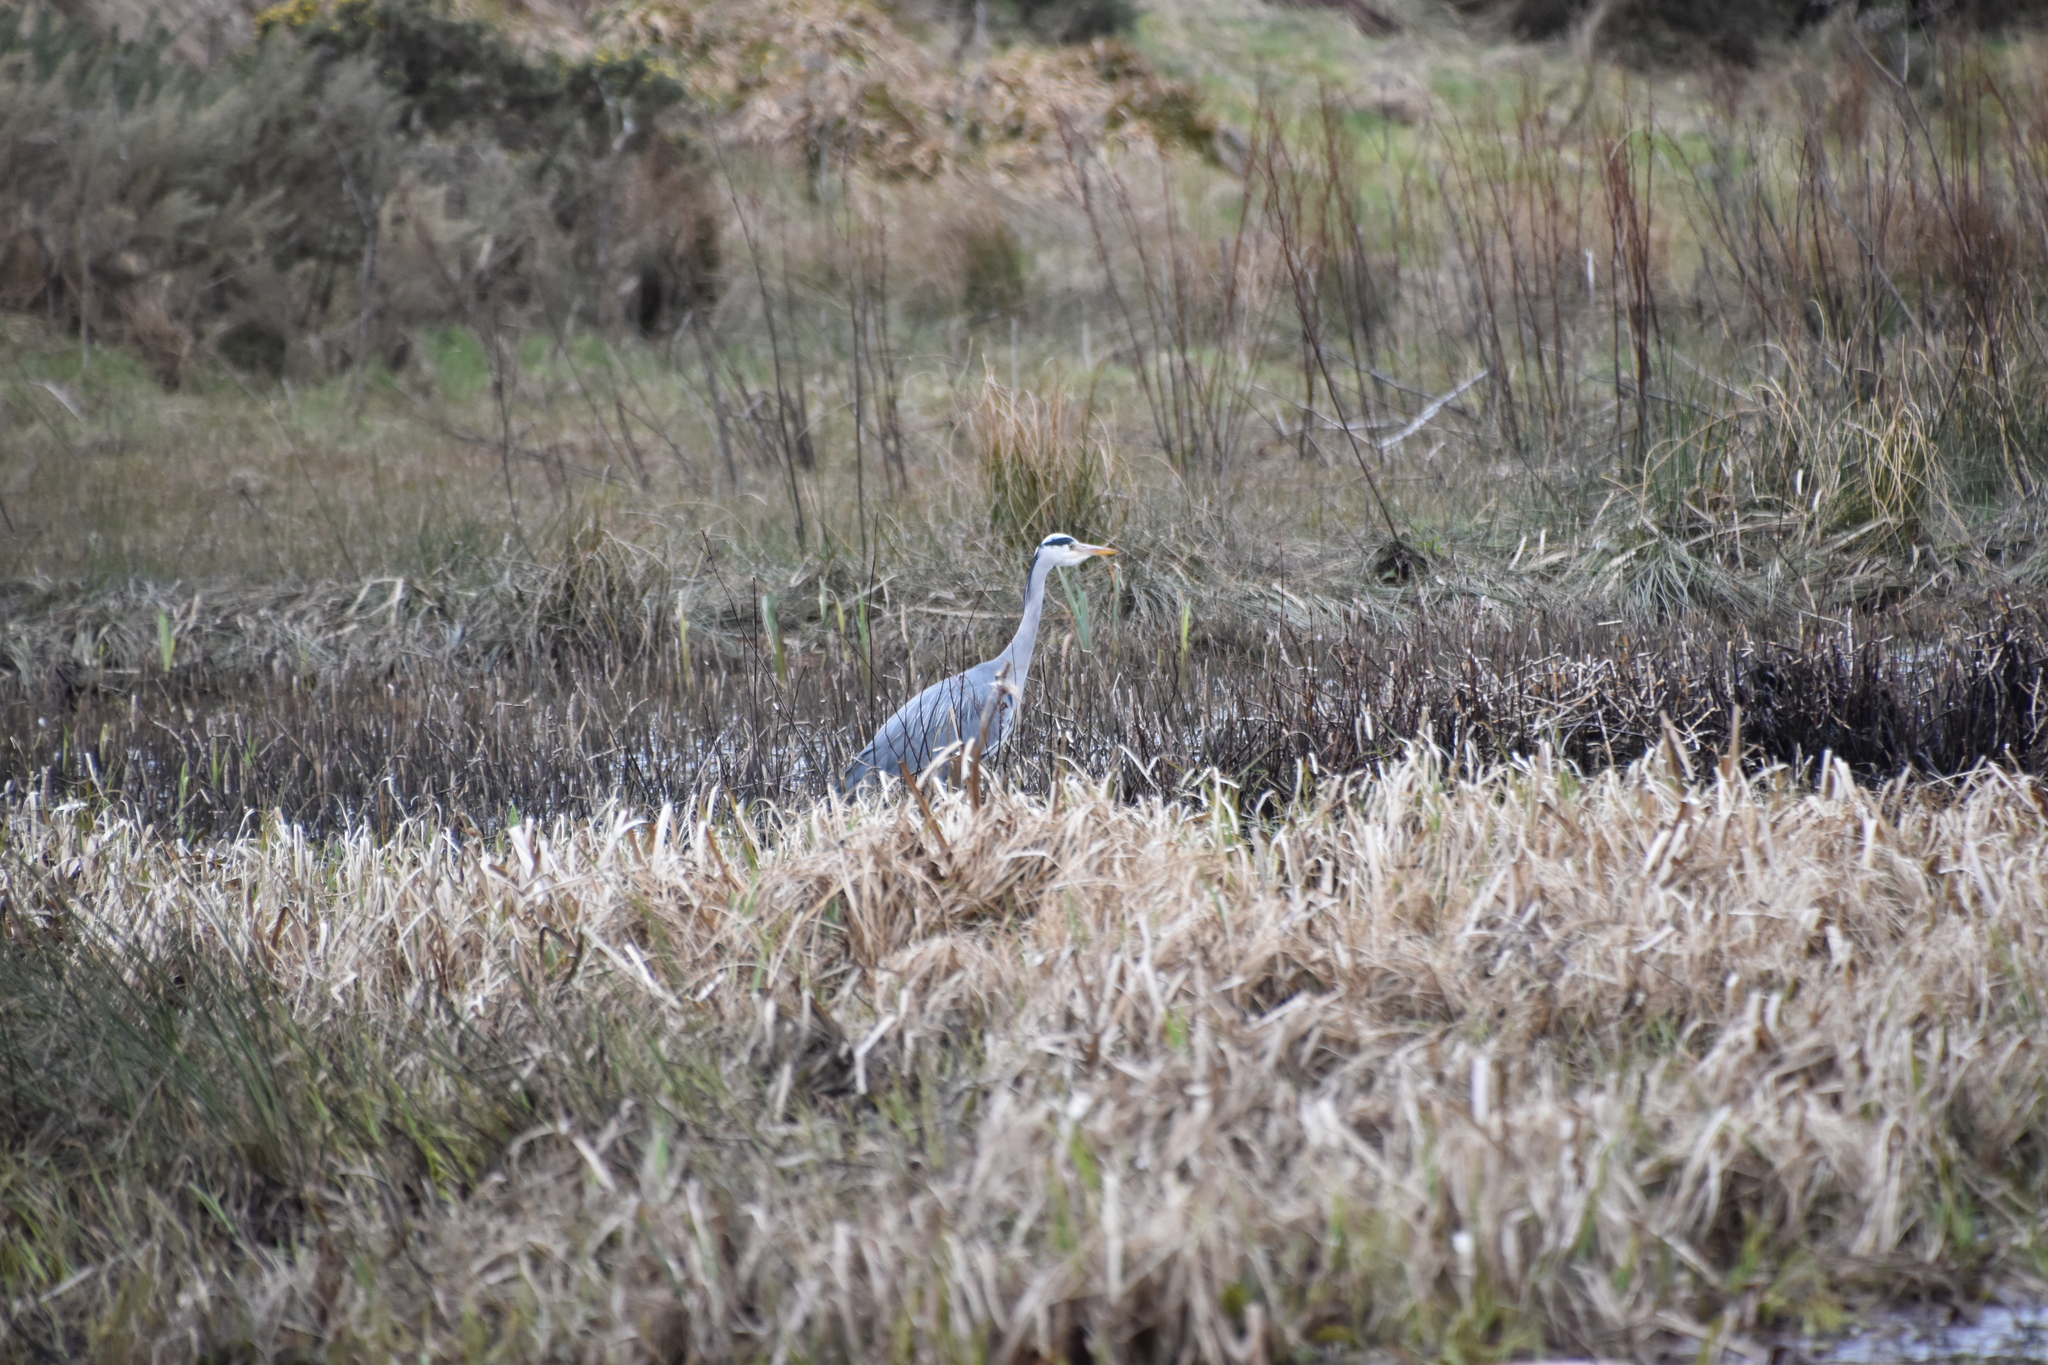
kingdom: Animalia
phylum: Chordata
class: Aves
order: Pelecaniformes
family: Ardeidae
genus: Ardea
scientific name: Ardea cinerea
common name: Grey heron
